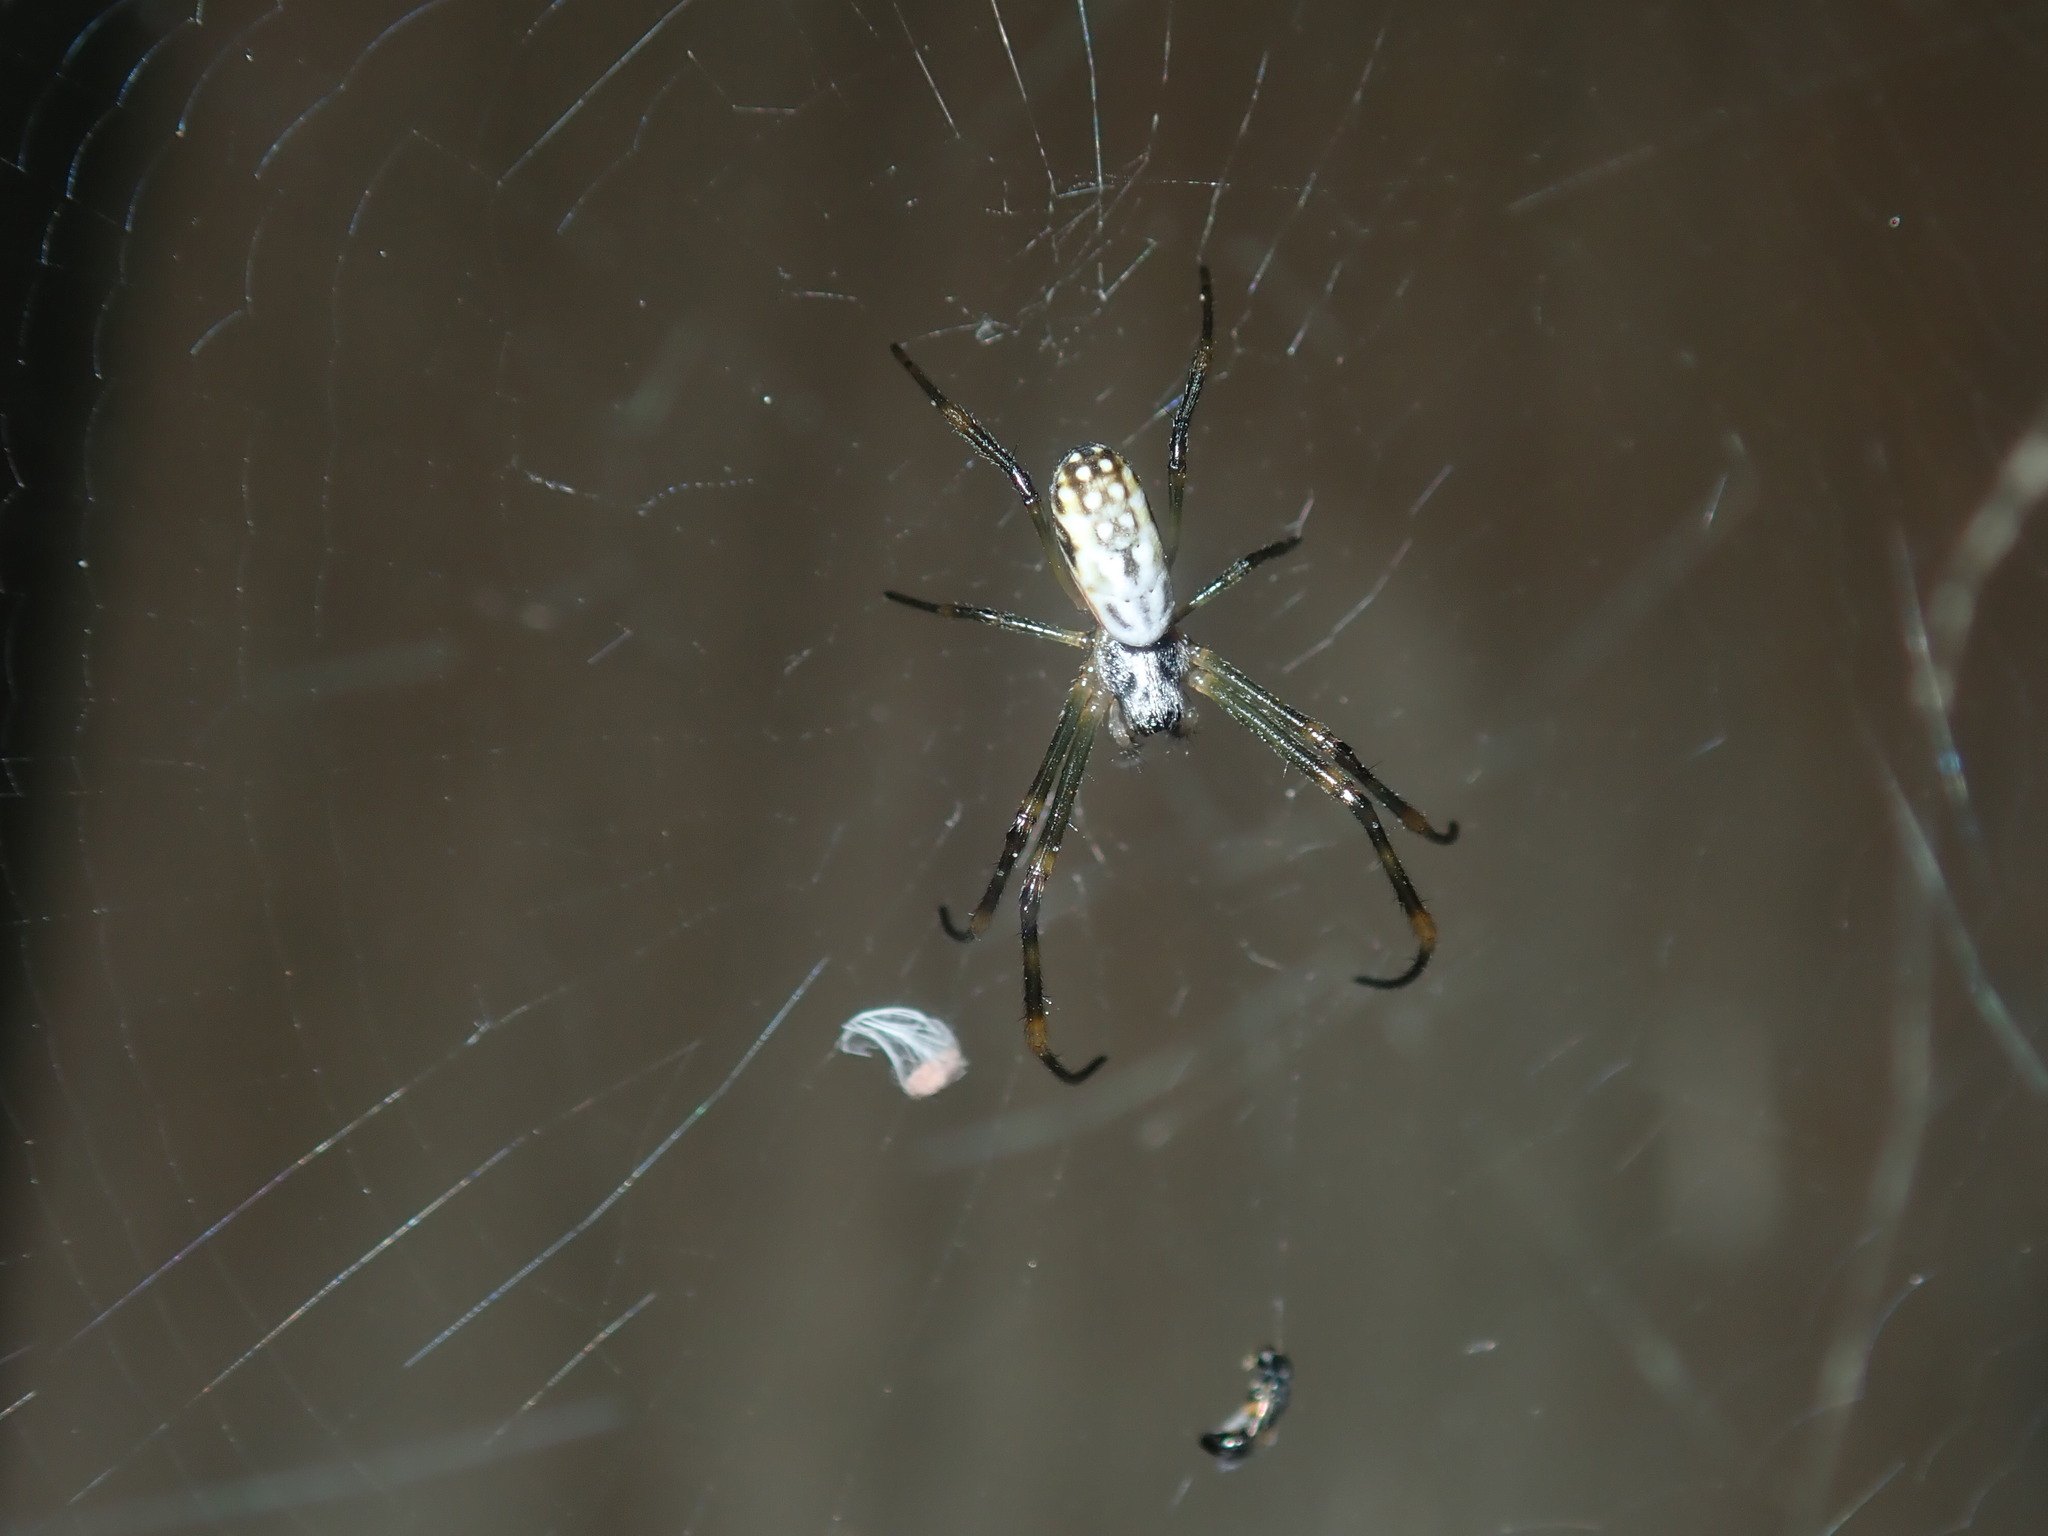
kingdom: Animalia
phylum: Arthropoda
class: Arachnida
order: Araneae
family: Araneidae
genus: Trichonephila
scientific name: Trichonephila plumipes
